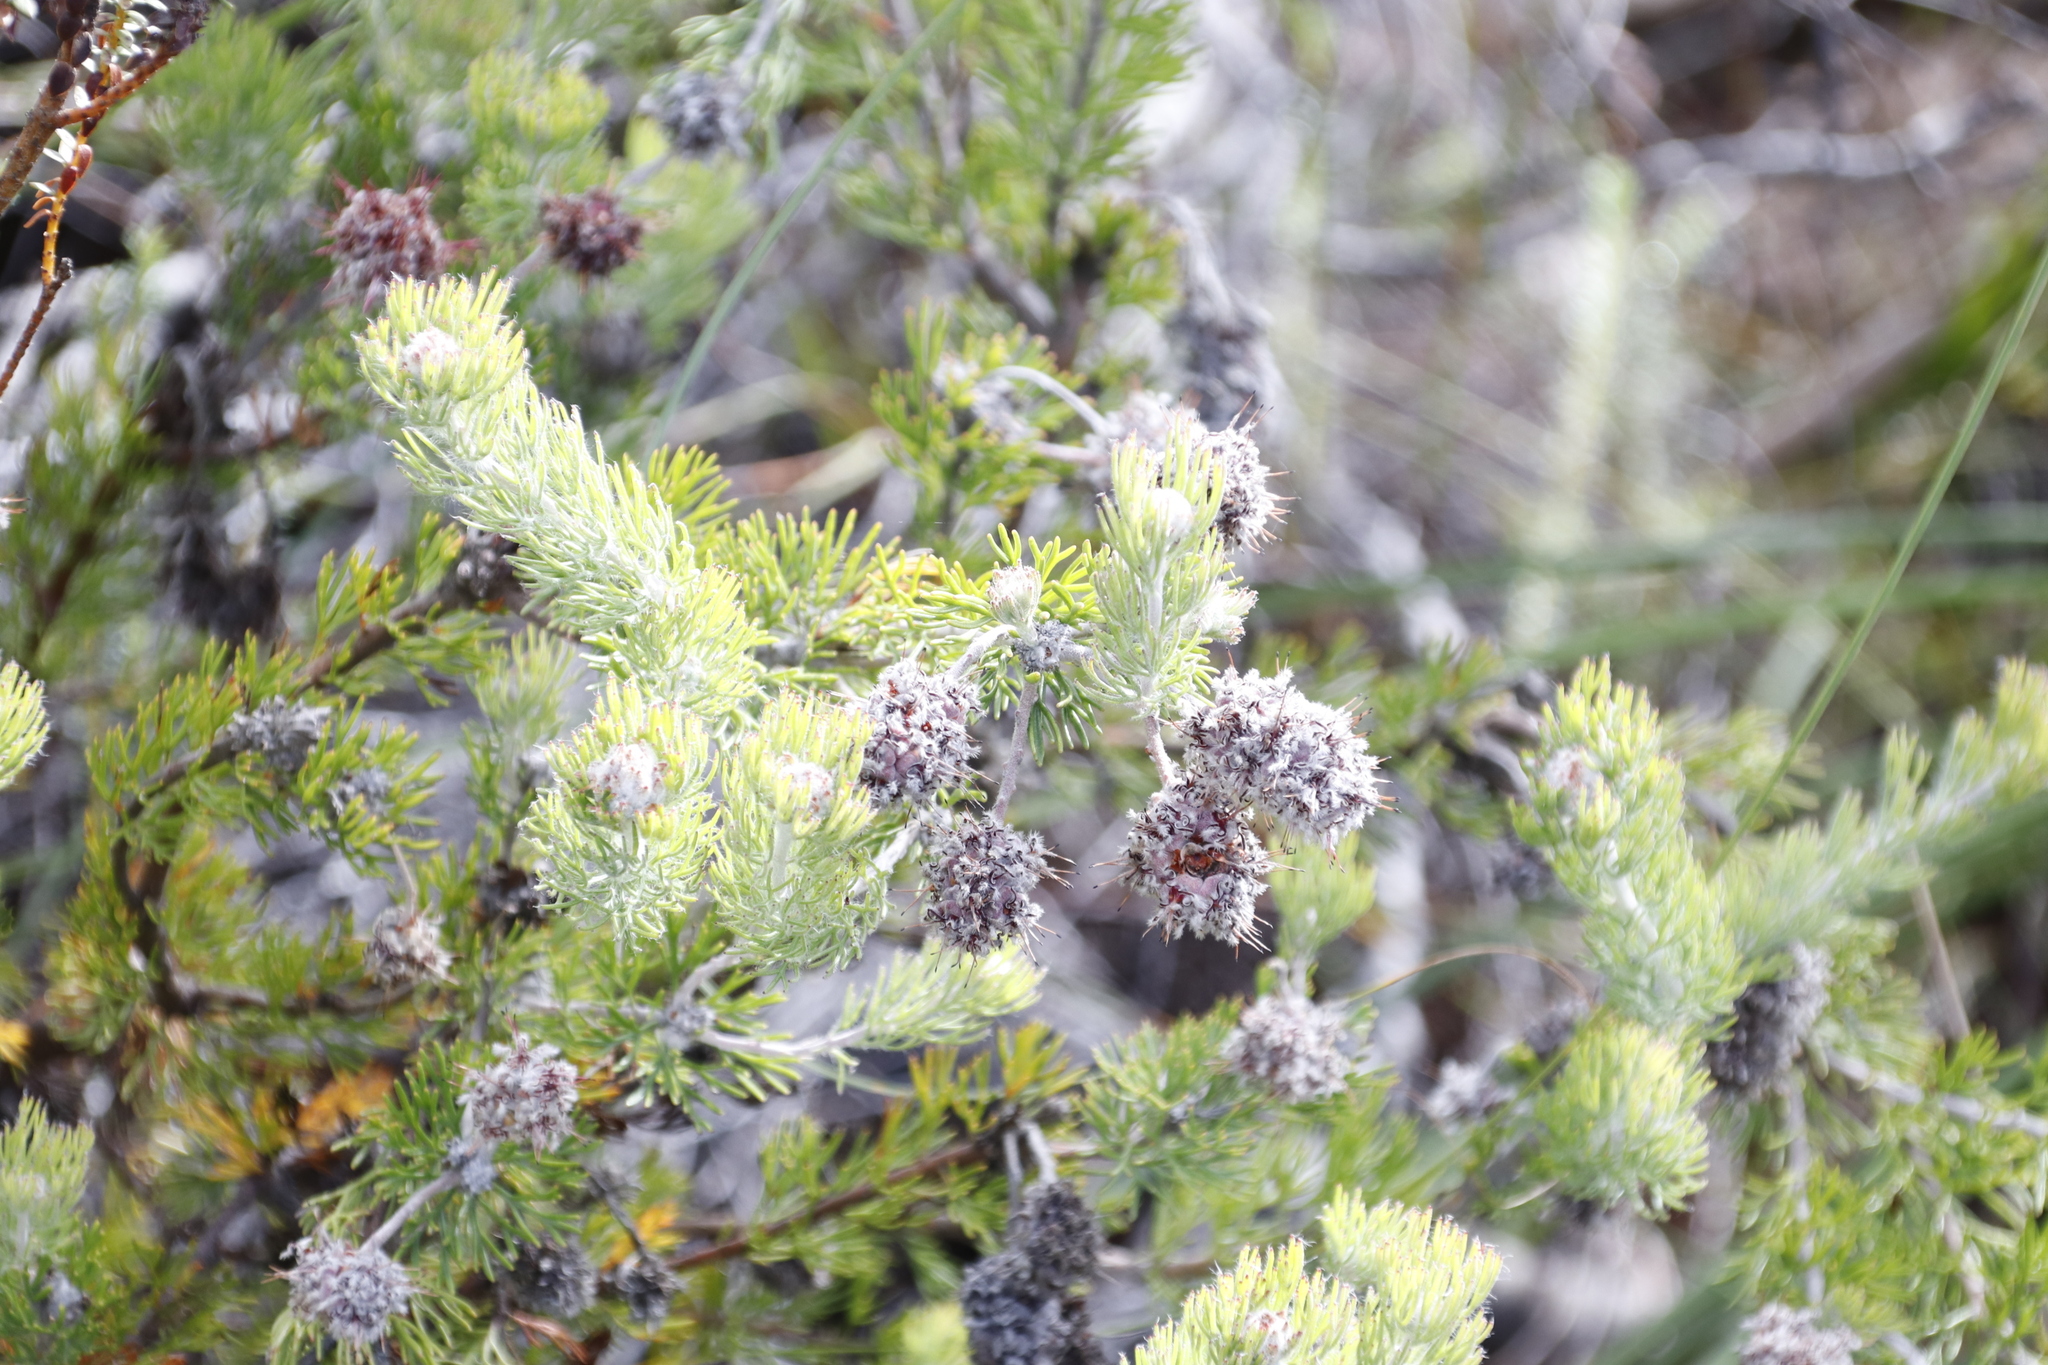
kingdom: Plantae
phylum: Tracheophyta
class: Magnoliopsida
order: Proteales
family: Proteaceae
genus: Serruria
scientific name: Serruria
